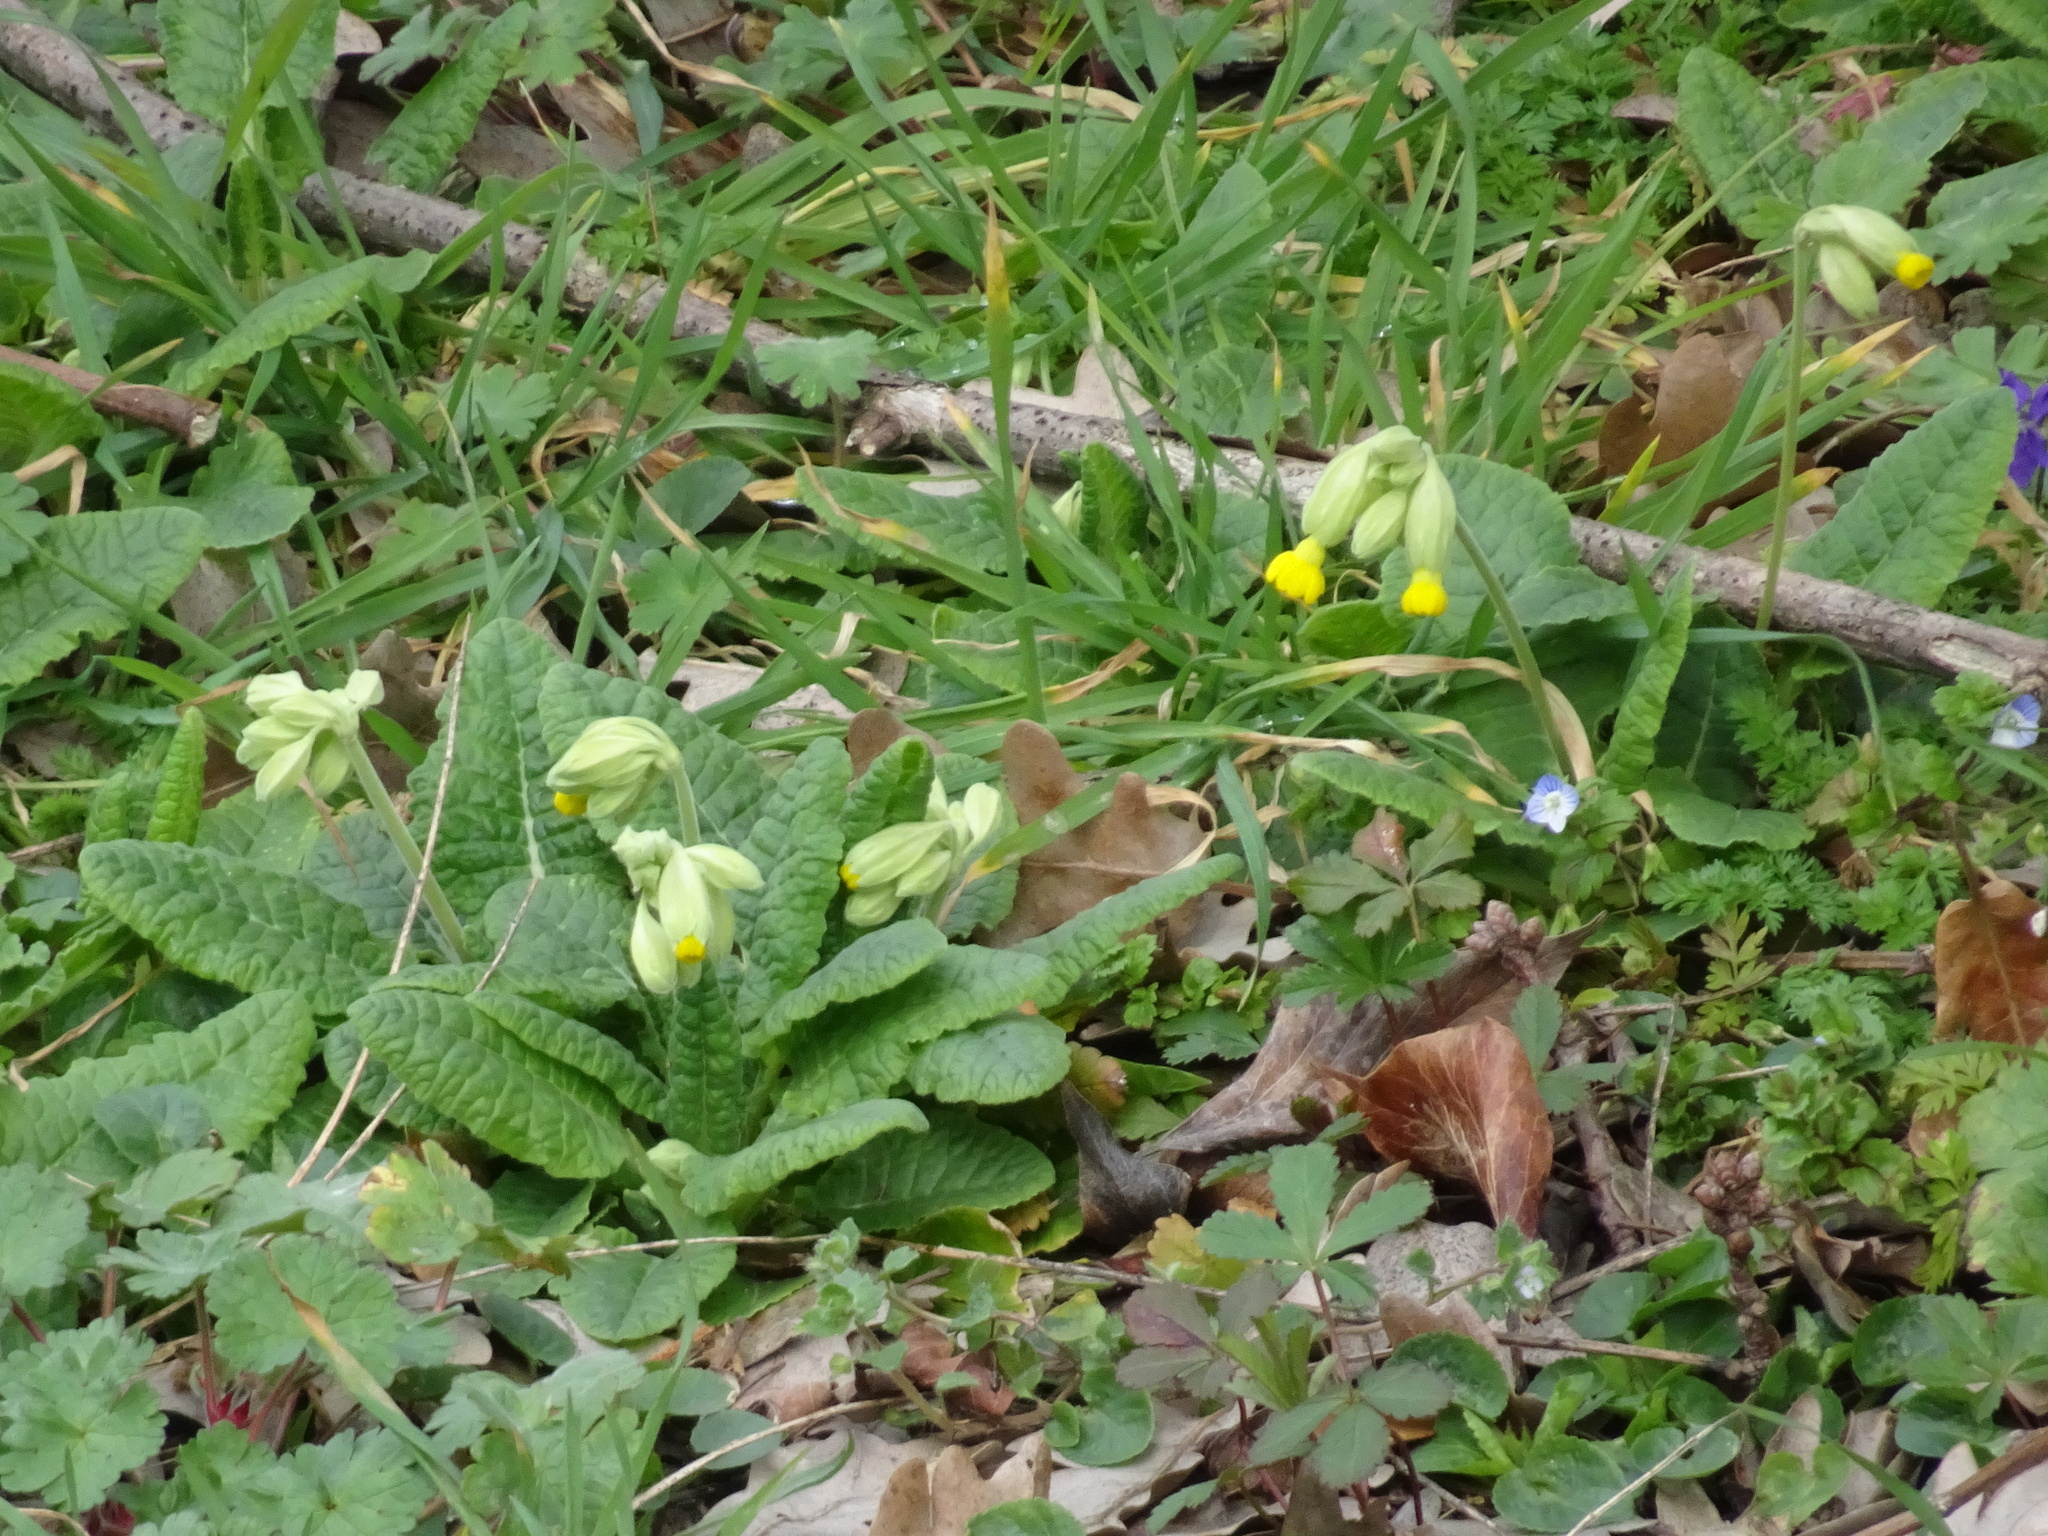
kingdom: Plantae
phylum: Tracheophyta
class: Magnoliopsida
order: Ericales
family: Primulaceae
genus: Primula
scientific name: Primula veris
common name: Cowslip
